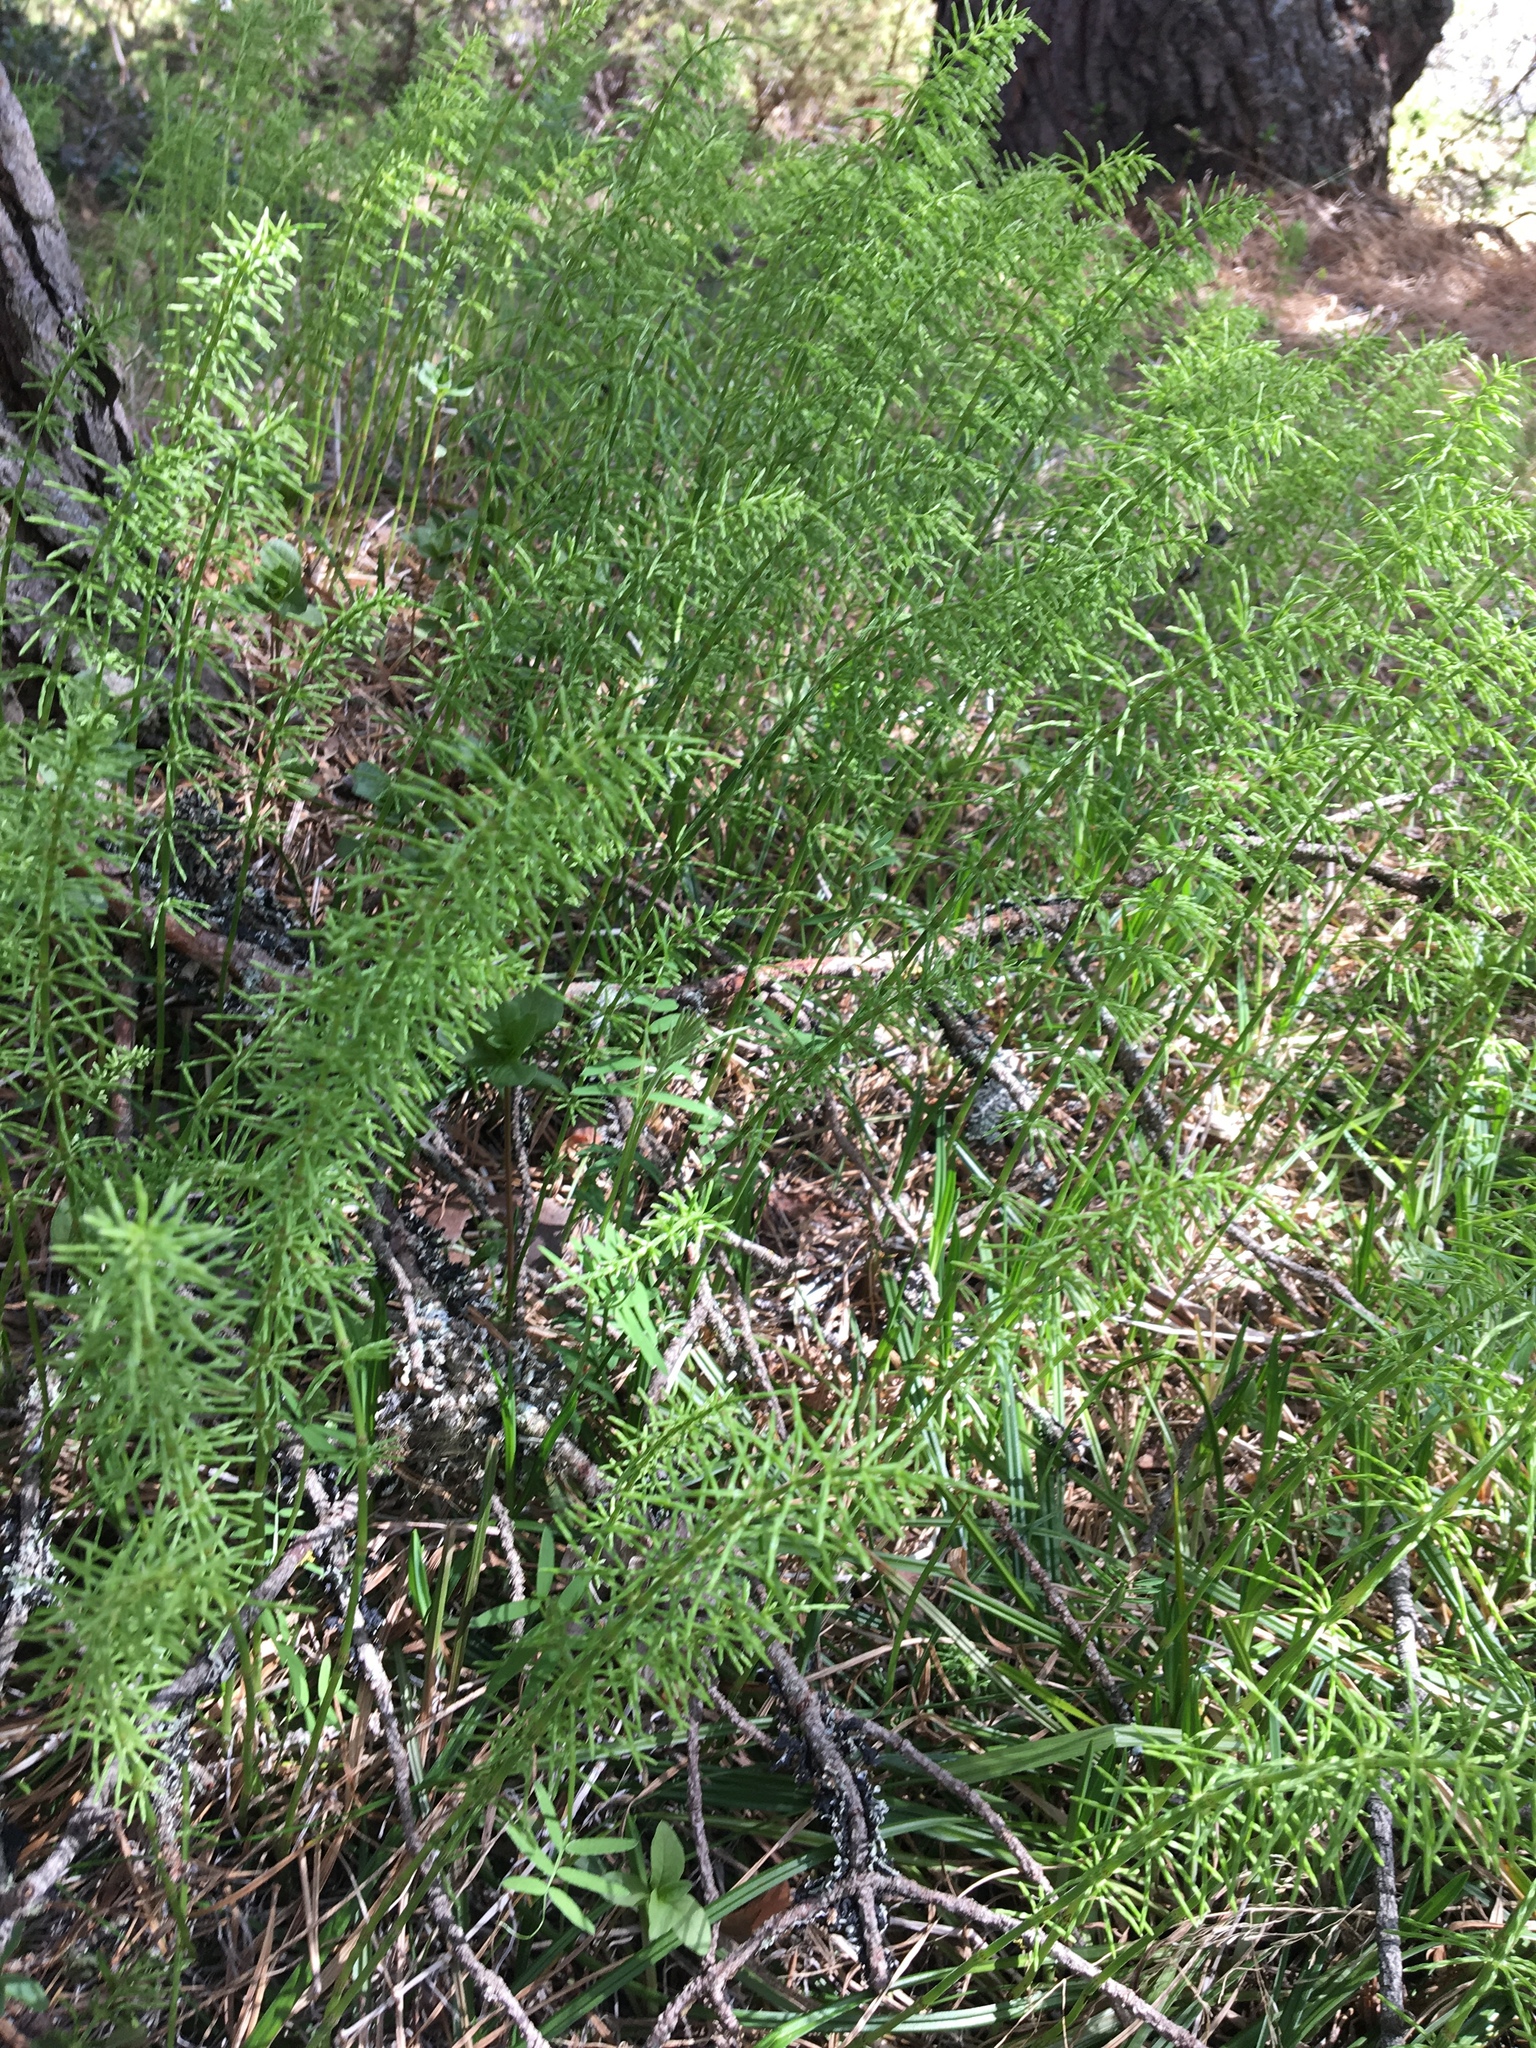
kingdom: Plantae
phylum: Tracheophyta
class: Polypodiopsida
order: Equisetales
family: Equisetaceae
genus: Equisetum
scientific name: Equisetum pratense
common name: Meadow horsetail
